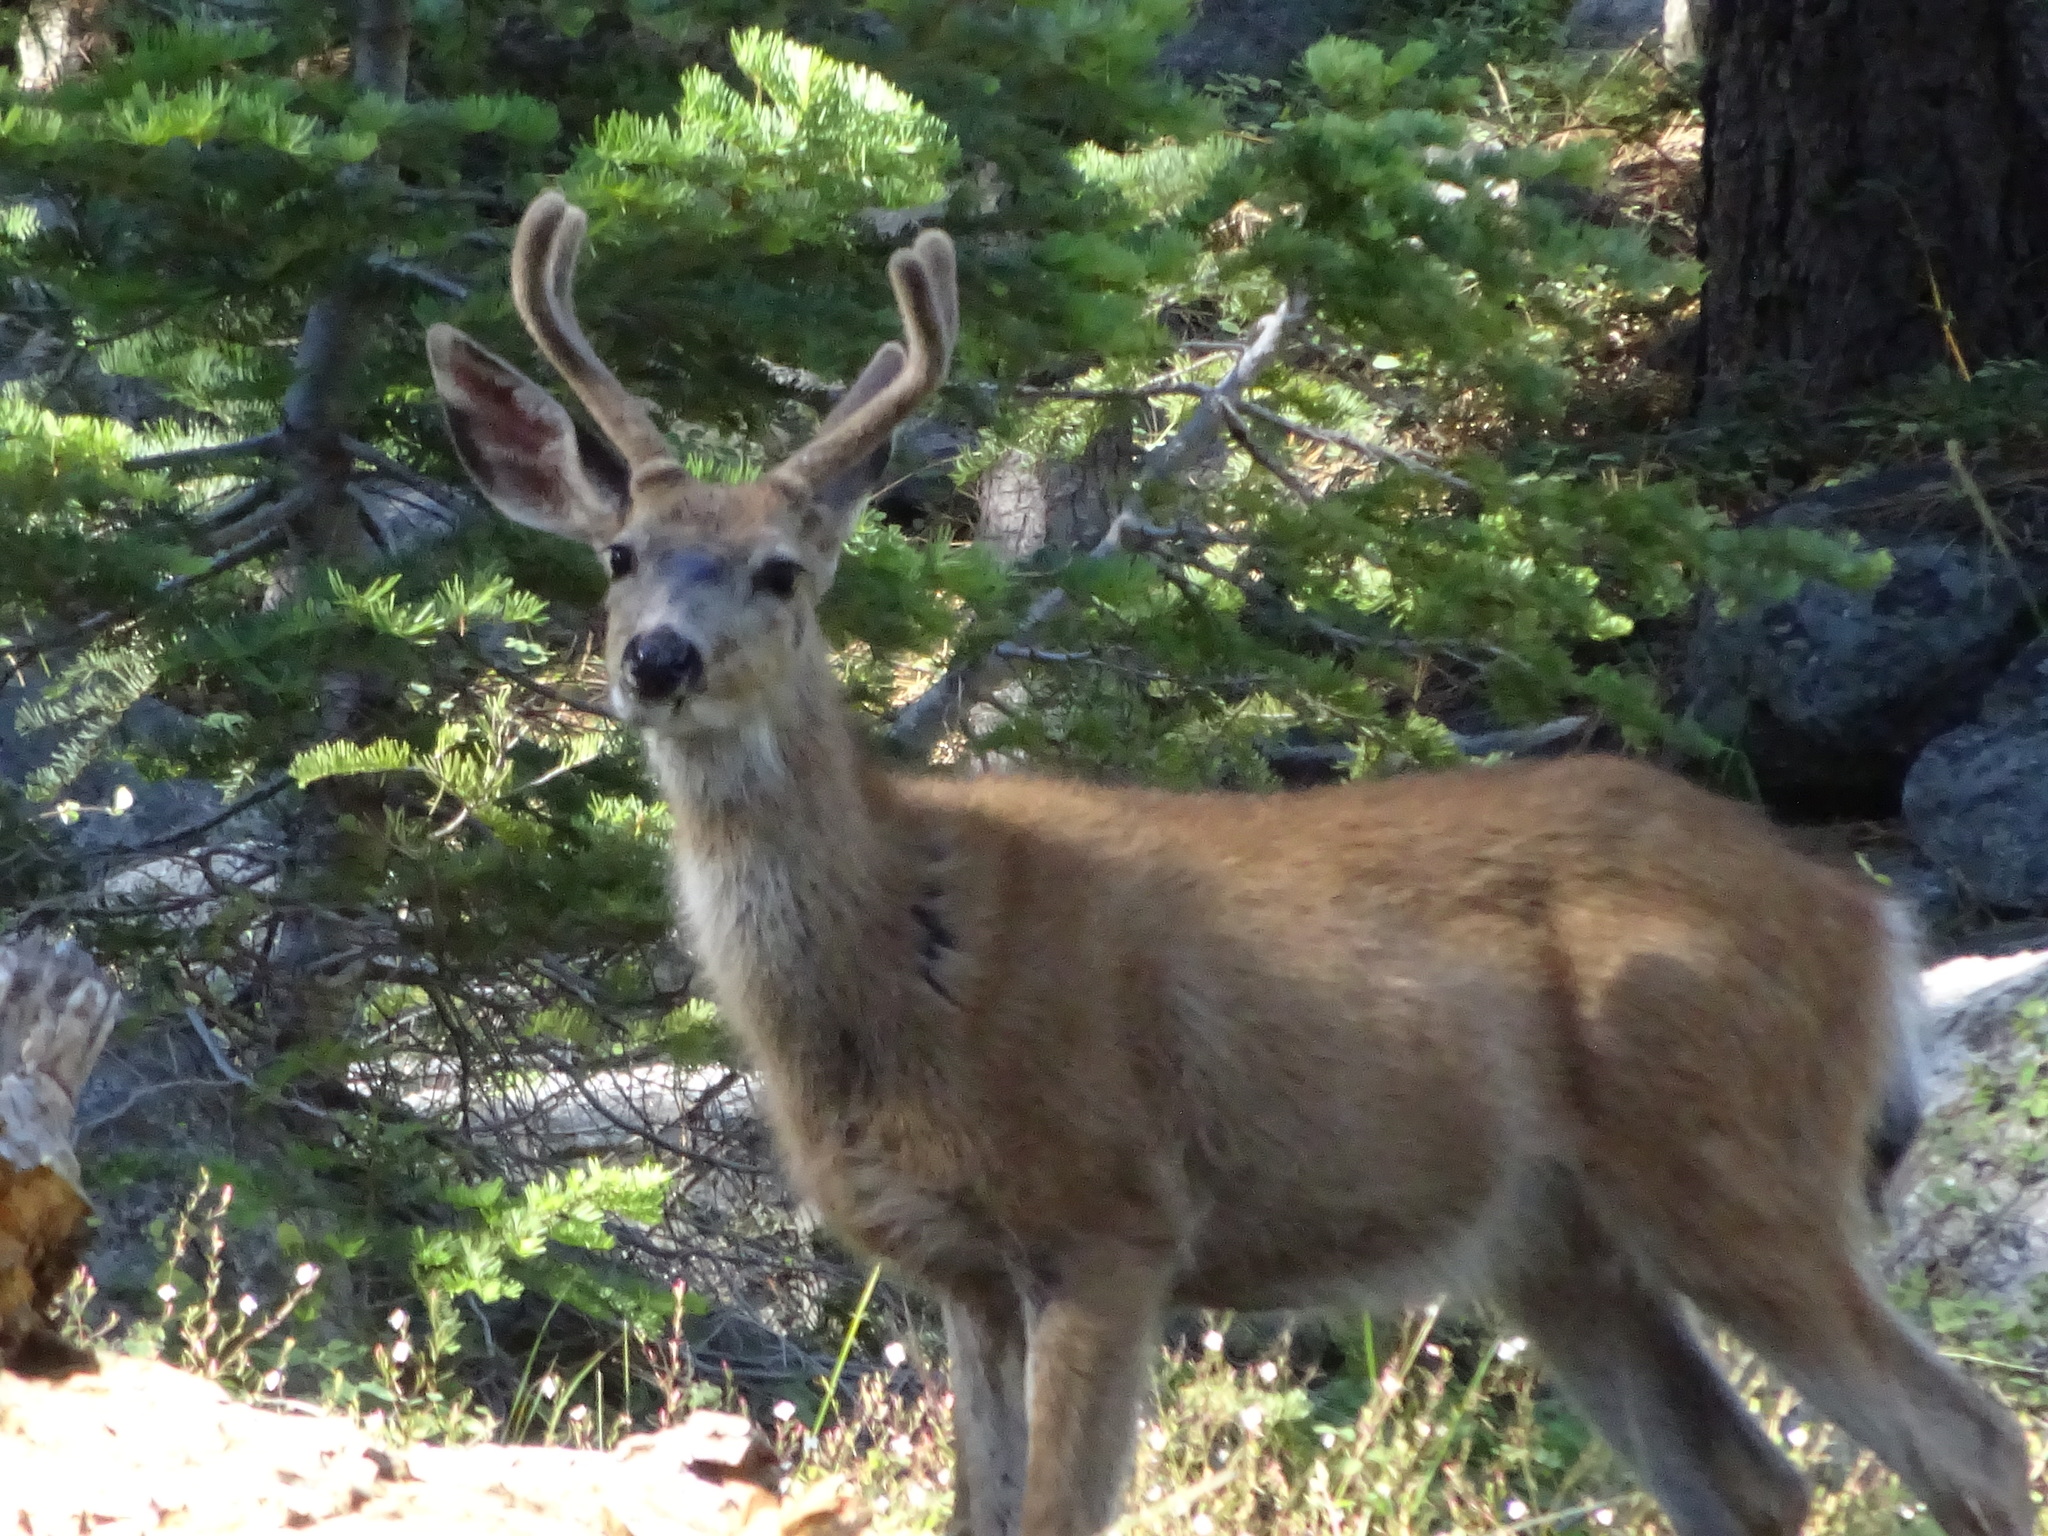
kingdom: Animalia
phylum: Chordata
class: Mammalia
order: Artiodactyla
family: Cervidae
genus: Odocoileus
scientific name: Odocoileus hemionus
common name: Mule deer
